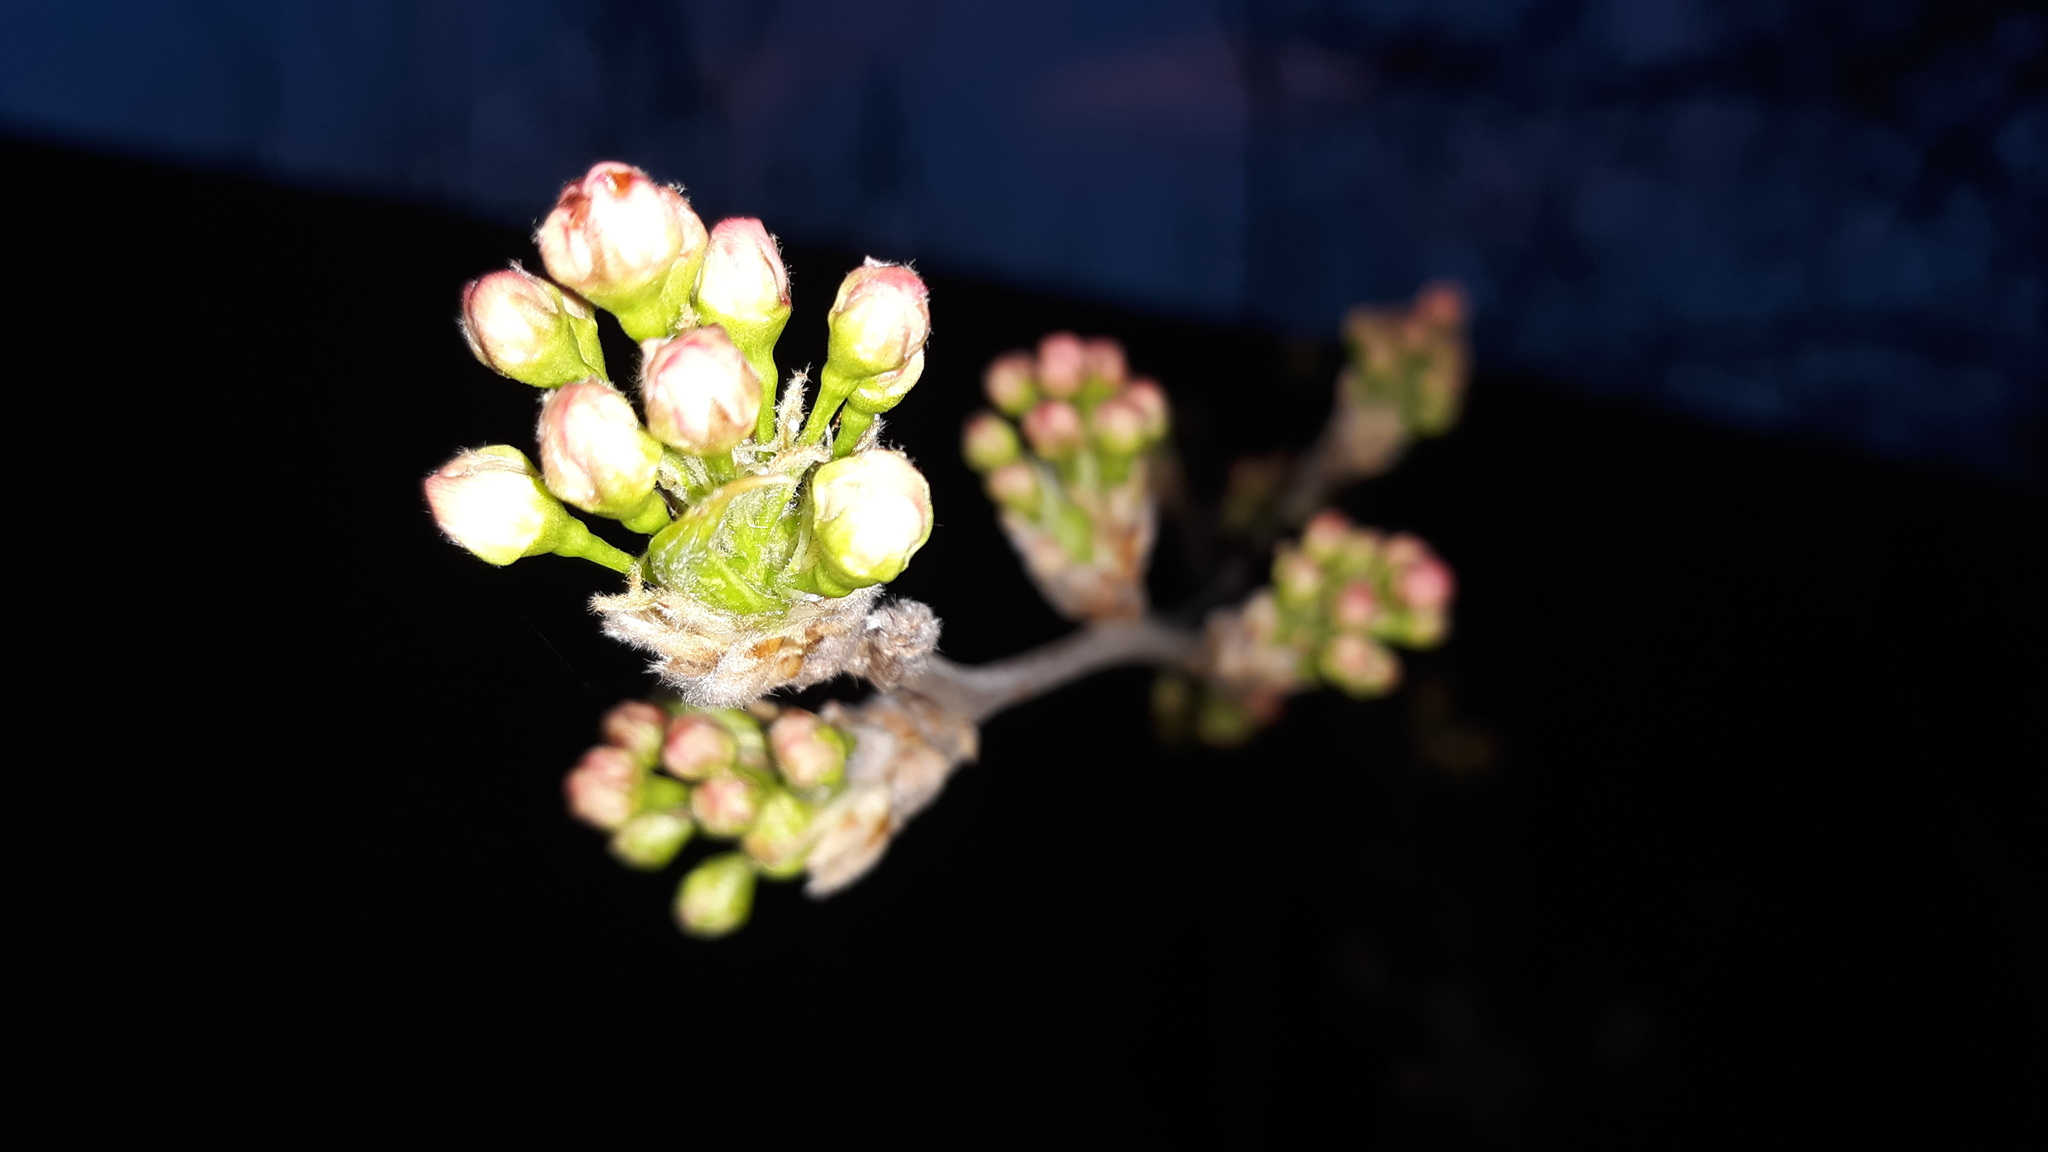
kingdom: Plantae
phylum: Tracheophyta
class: Magnoliopsida
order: Rosales
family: Rosaceae
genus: Pyrus
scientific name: Pyrus calleryana
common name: Callery pear
